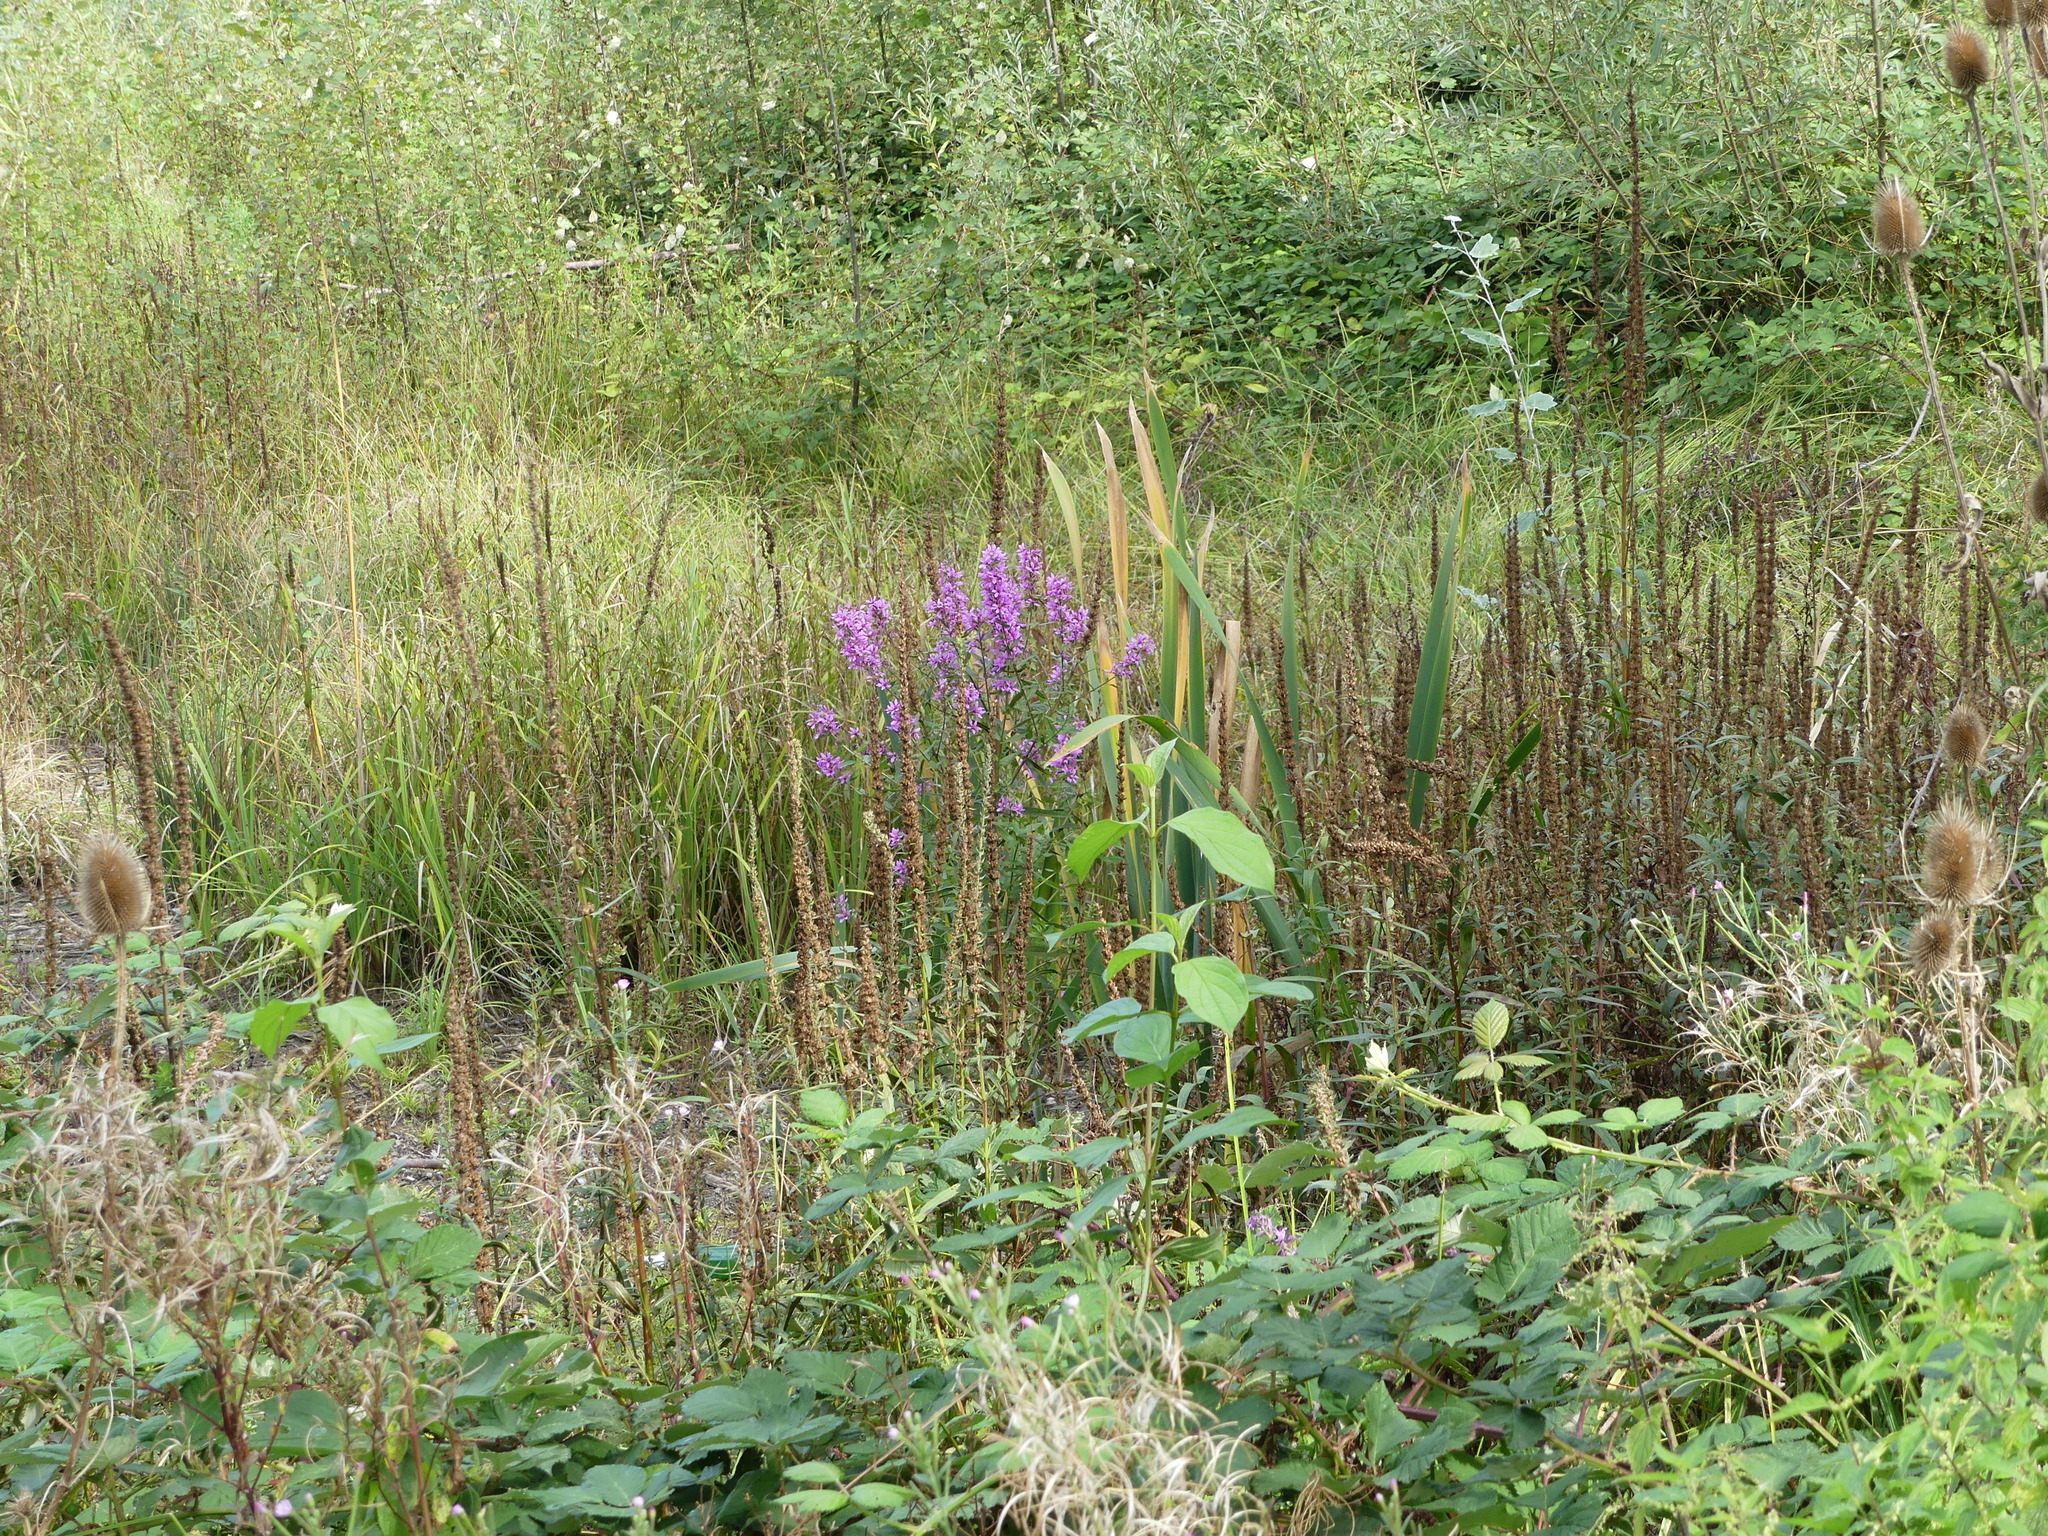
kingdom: Plantae
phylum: Tracheophyta
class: Magnoliopsida
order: Myrtales
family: Lythraceae
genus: Lythrum
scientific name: Lythrum salicaria
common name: Purple loosestrife
